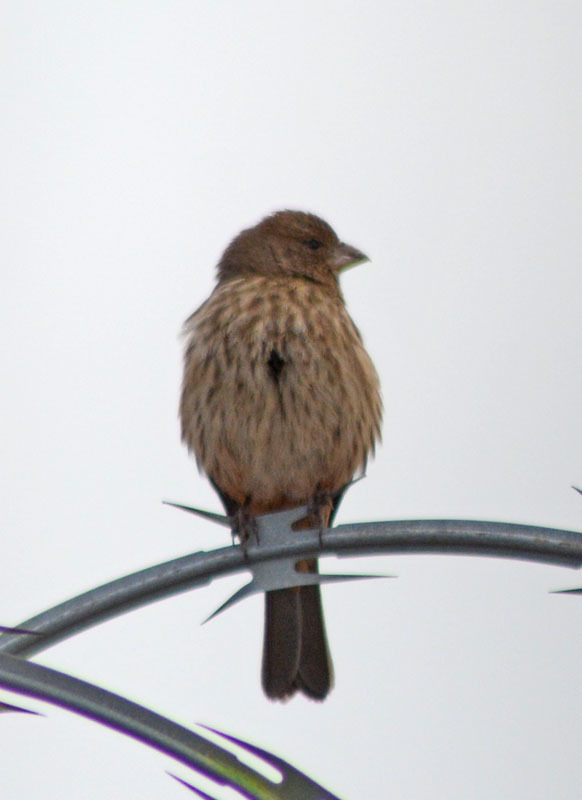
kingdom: Animalia
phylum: Chordata
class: Aves
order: Passeriformes
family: Fringillidae
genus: Haemorhous
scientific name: Haemorhous mexicanus
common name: House finch
